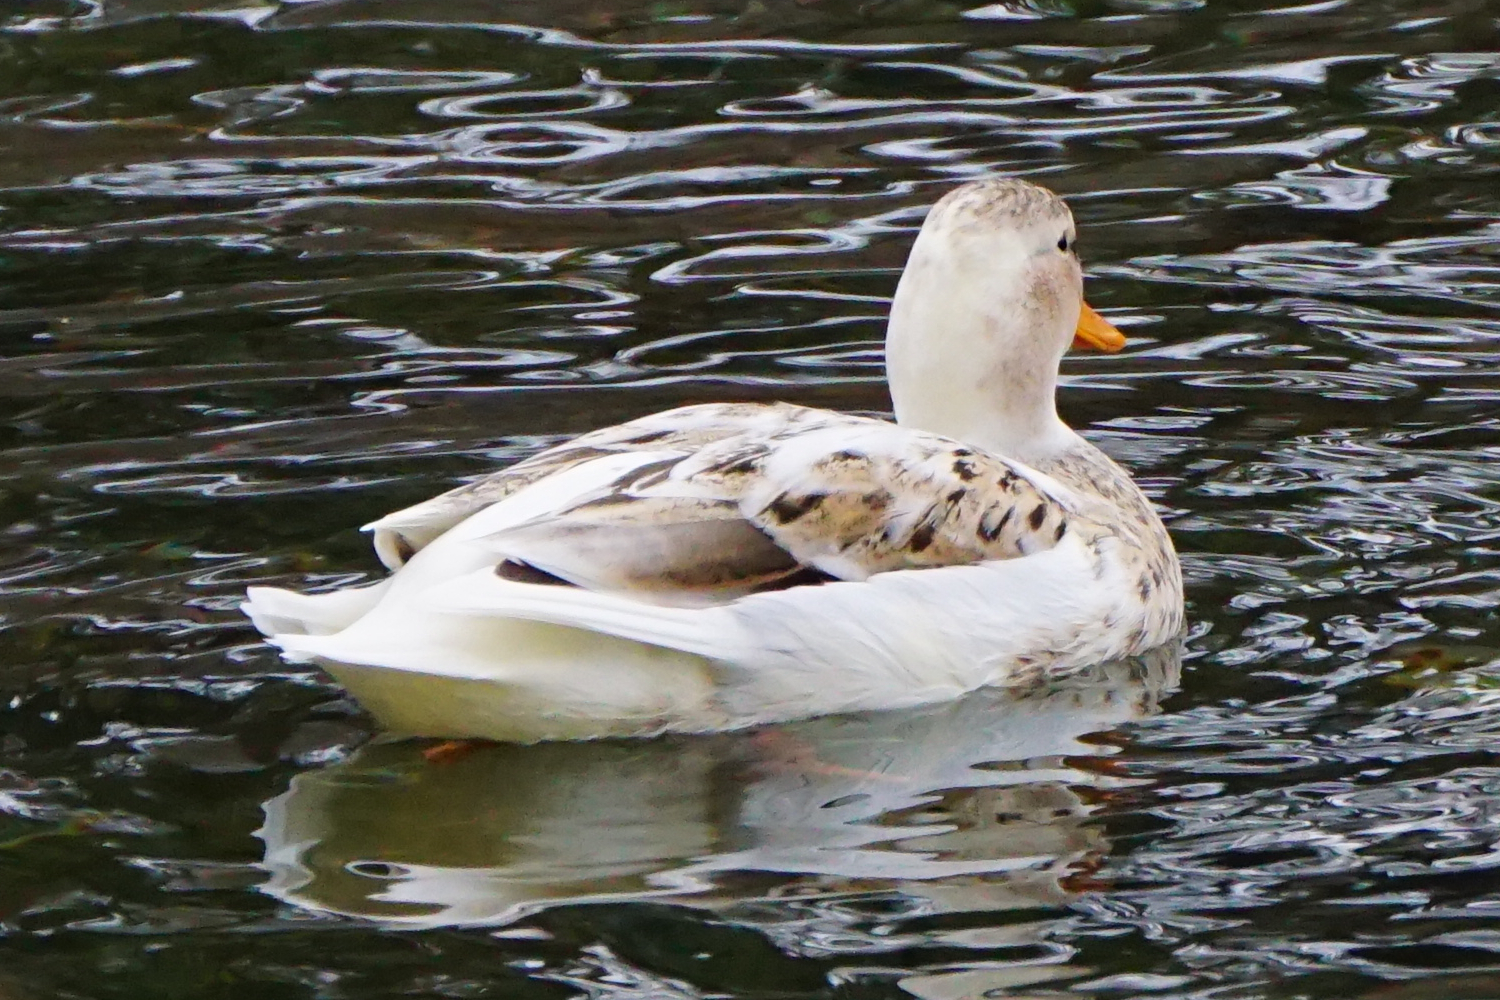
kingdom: Animalia
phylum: Chordata
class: Aves
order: Anseriformes
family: Anatidae
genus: Anas
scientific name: Anas platyrhynchos
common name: Mallard
